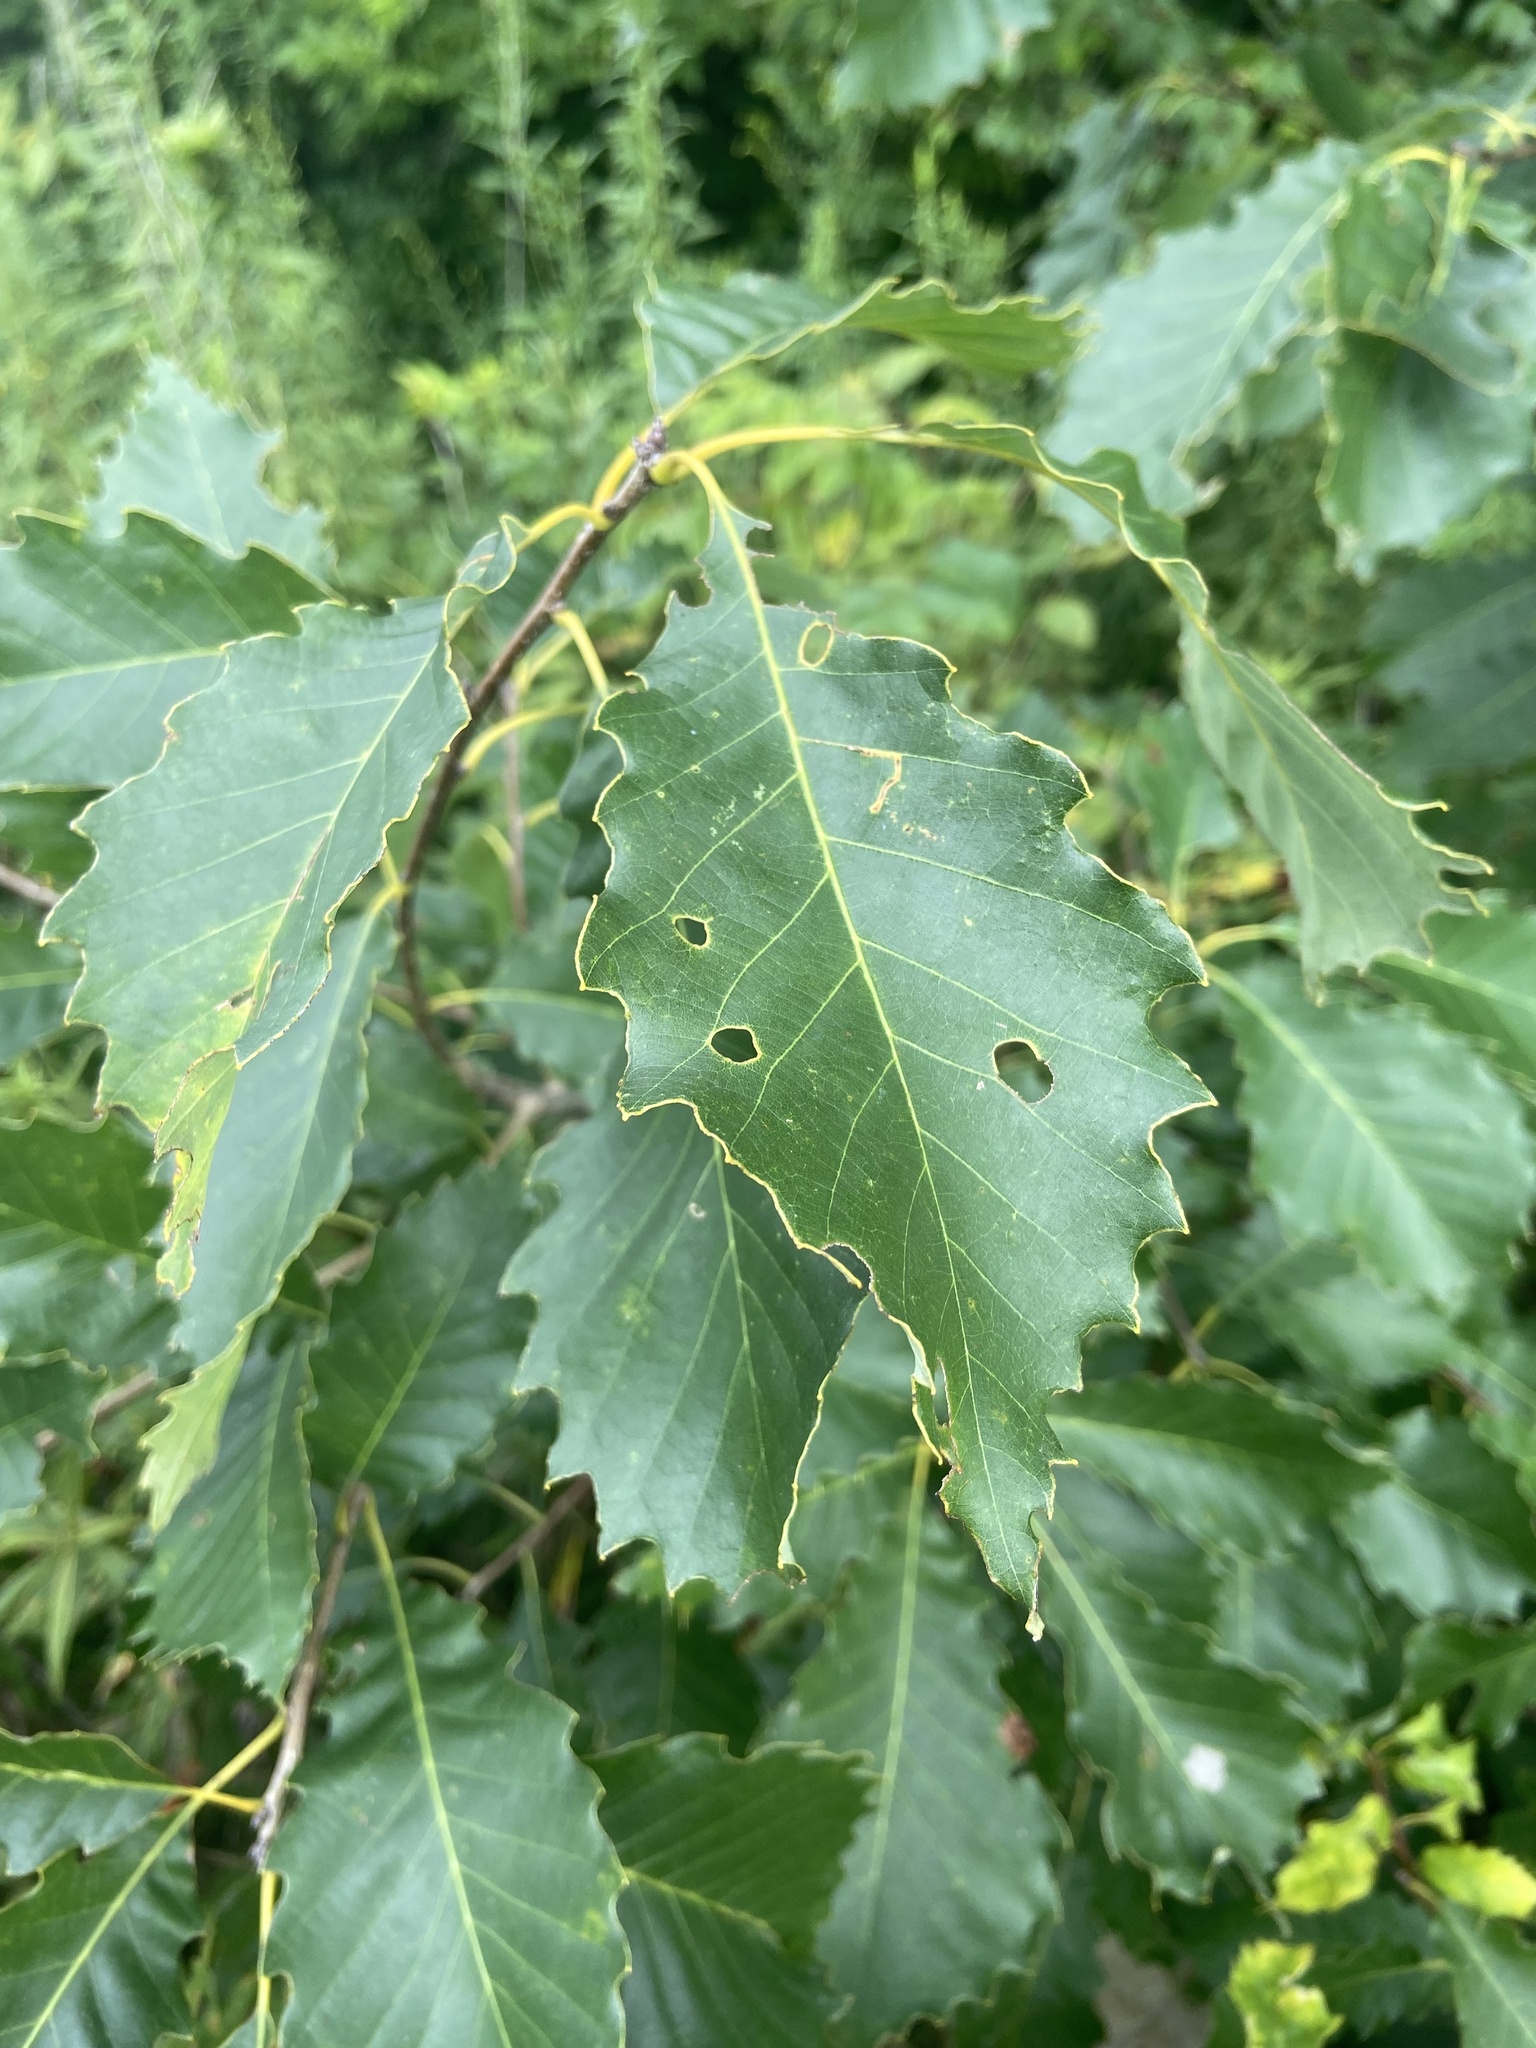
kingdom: Plantae
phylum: Tracheophyta
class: Magnoliopsida
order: Fagales
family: Fagaceae
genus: Quercus
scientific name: Quercus muehlenbergii
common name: Chinkapin oak
